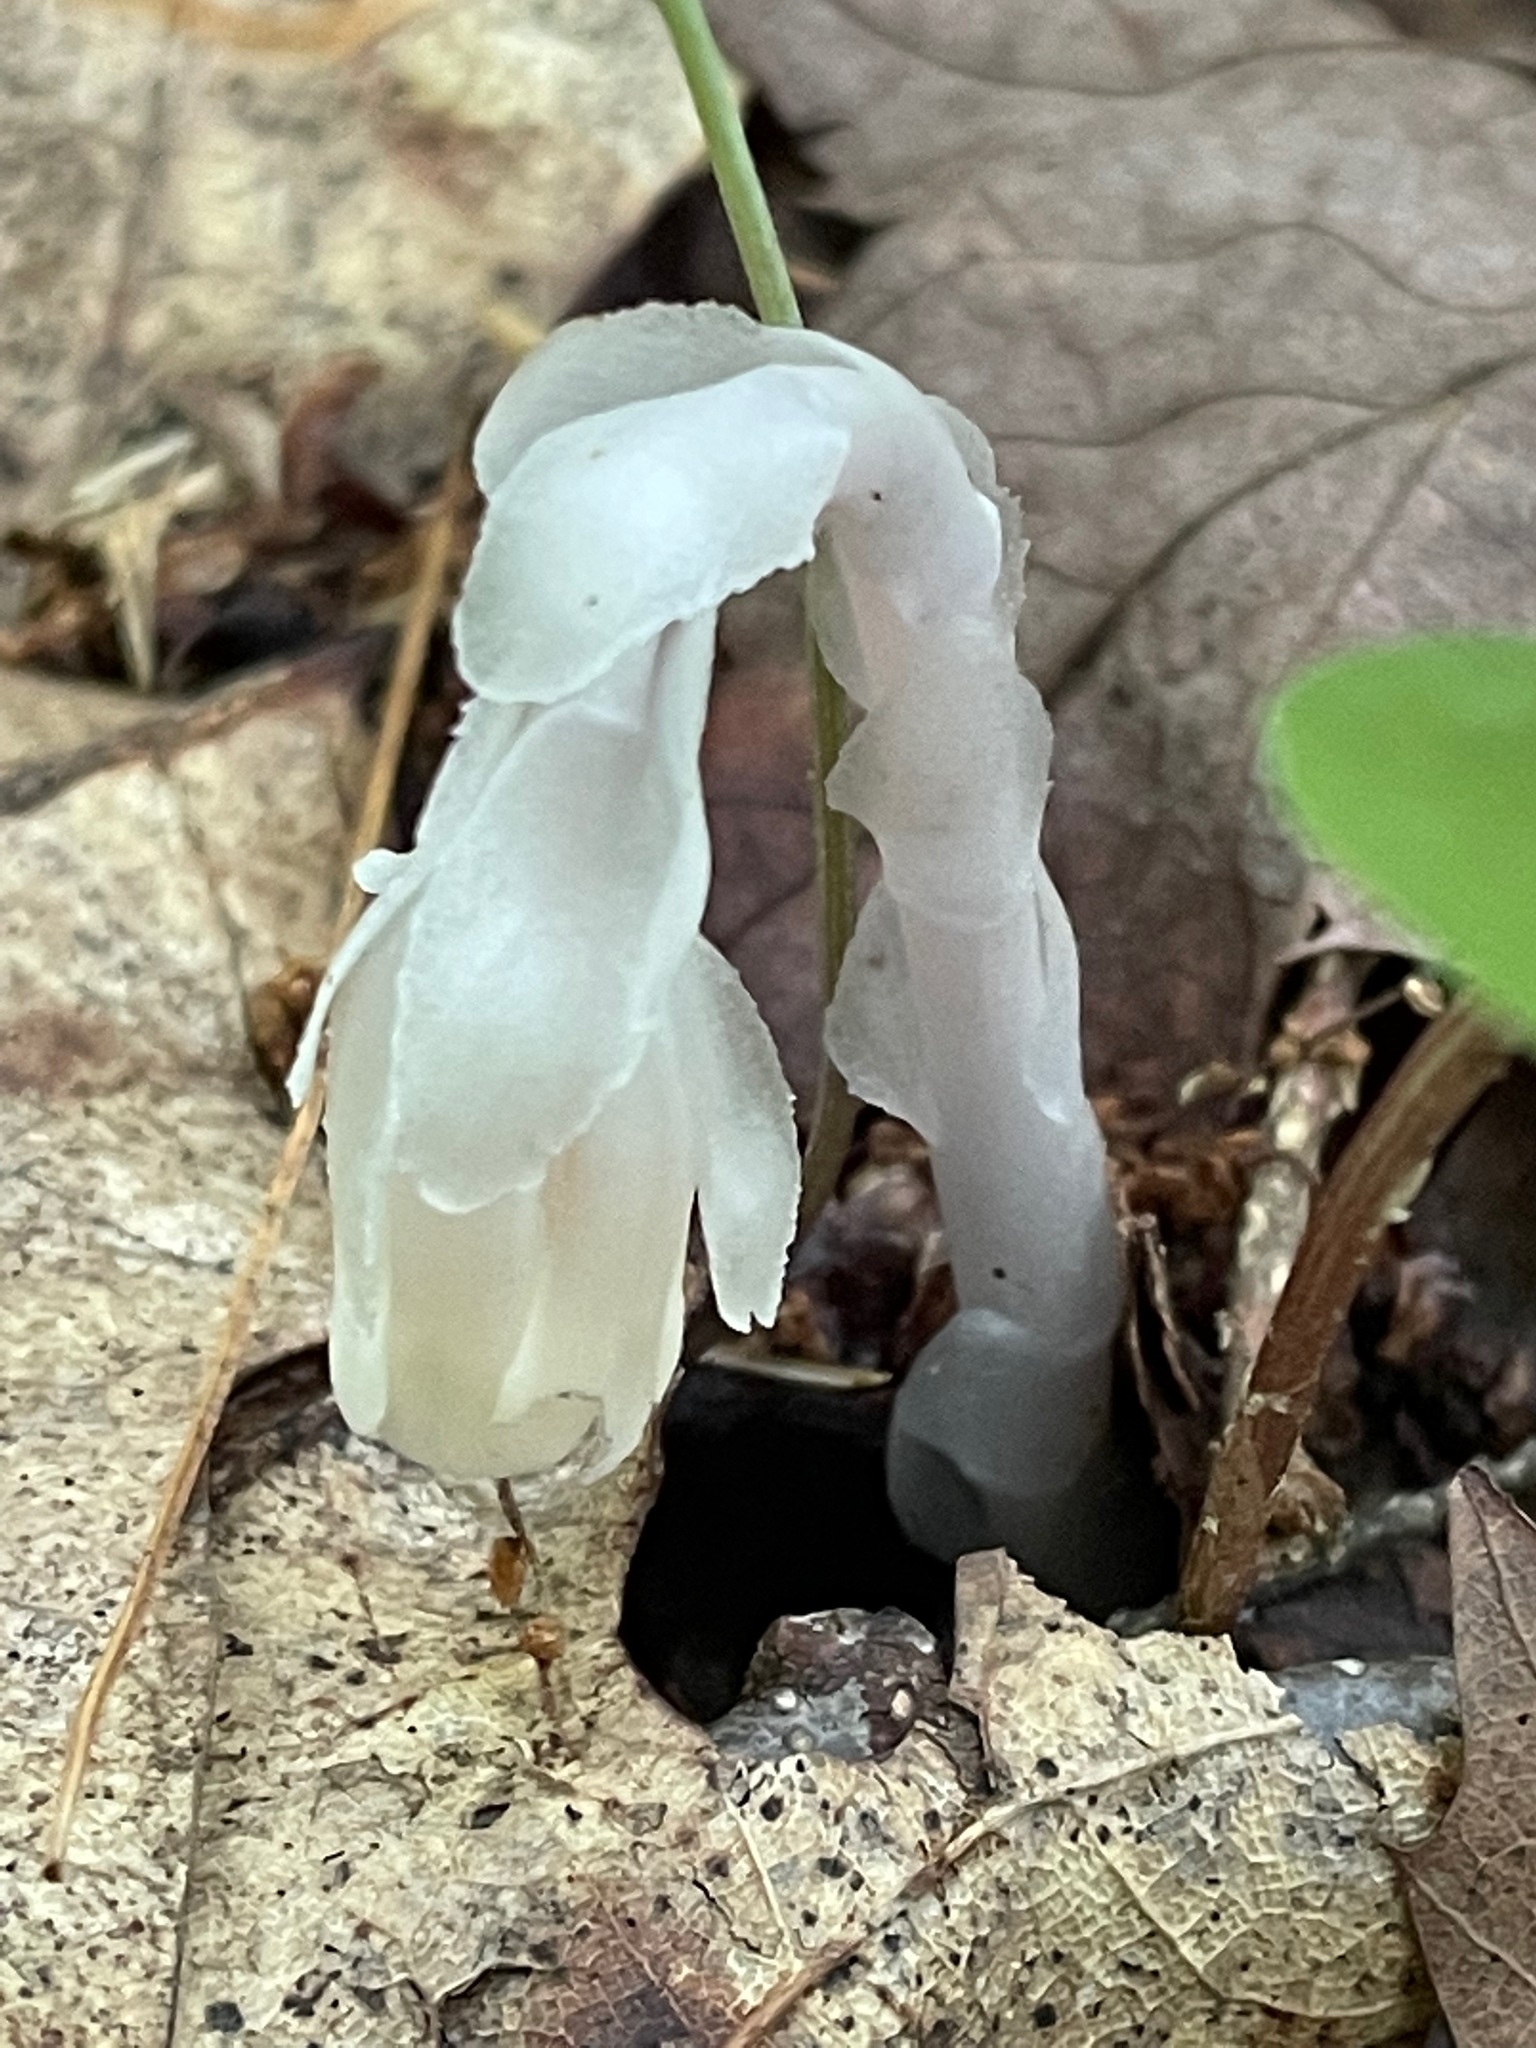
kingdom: Plantae
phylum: Tracheophyta
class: Magnoliopsida
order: Ericales
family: Ericaceae
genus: Monotropa
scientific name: Monotropa uniflora
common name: Convulsion root
